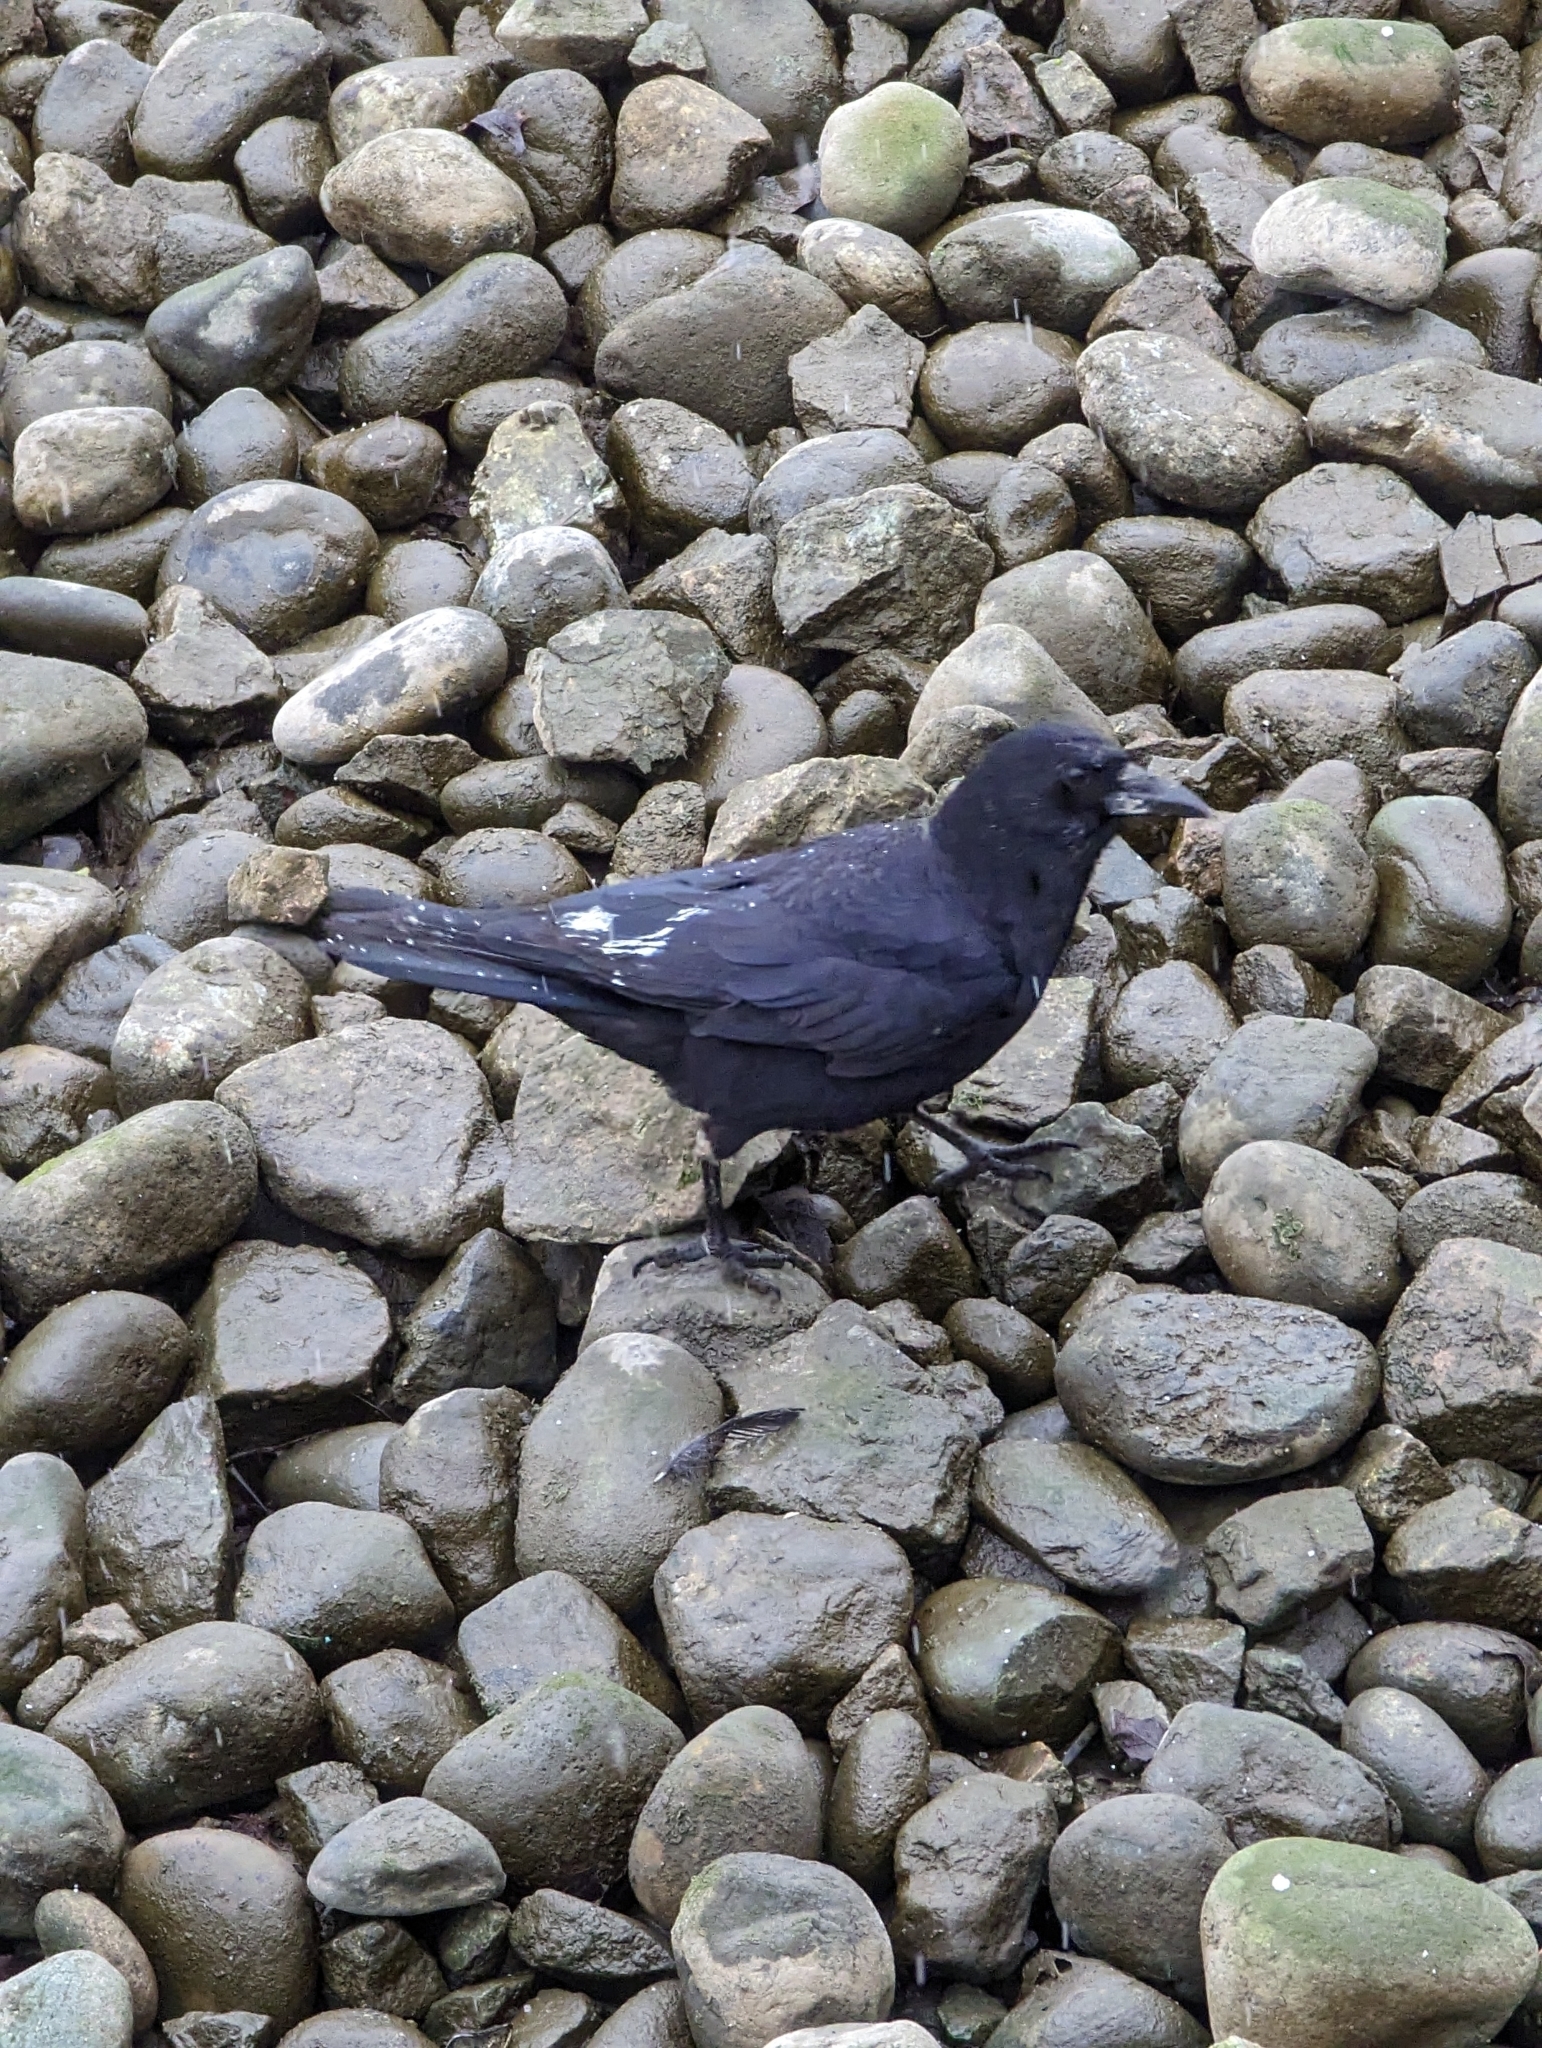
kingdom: Animalia
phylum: Chordata
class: Aves
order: Passeriformes
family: Corvidae
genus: Corvus
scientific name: Corvus brachyrhynchos
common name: American crow
